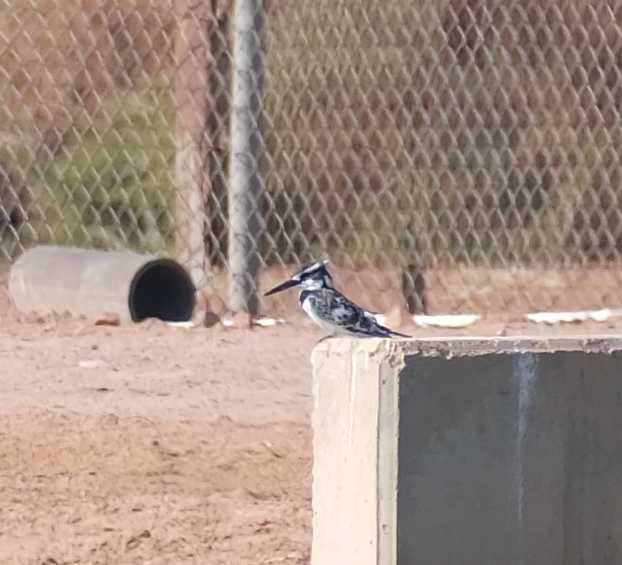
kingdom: Animalia
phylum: Chordata
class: Aves
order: Coraciiformes
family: Alcedinidae
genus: Ceryle
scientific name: Ceryle rudis
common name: Pied kingfisher
